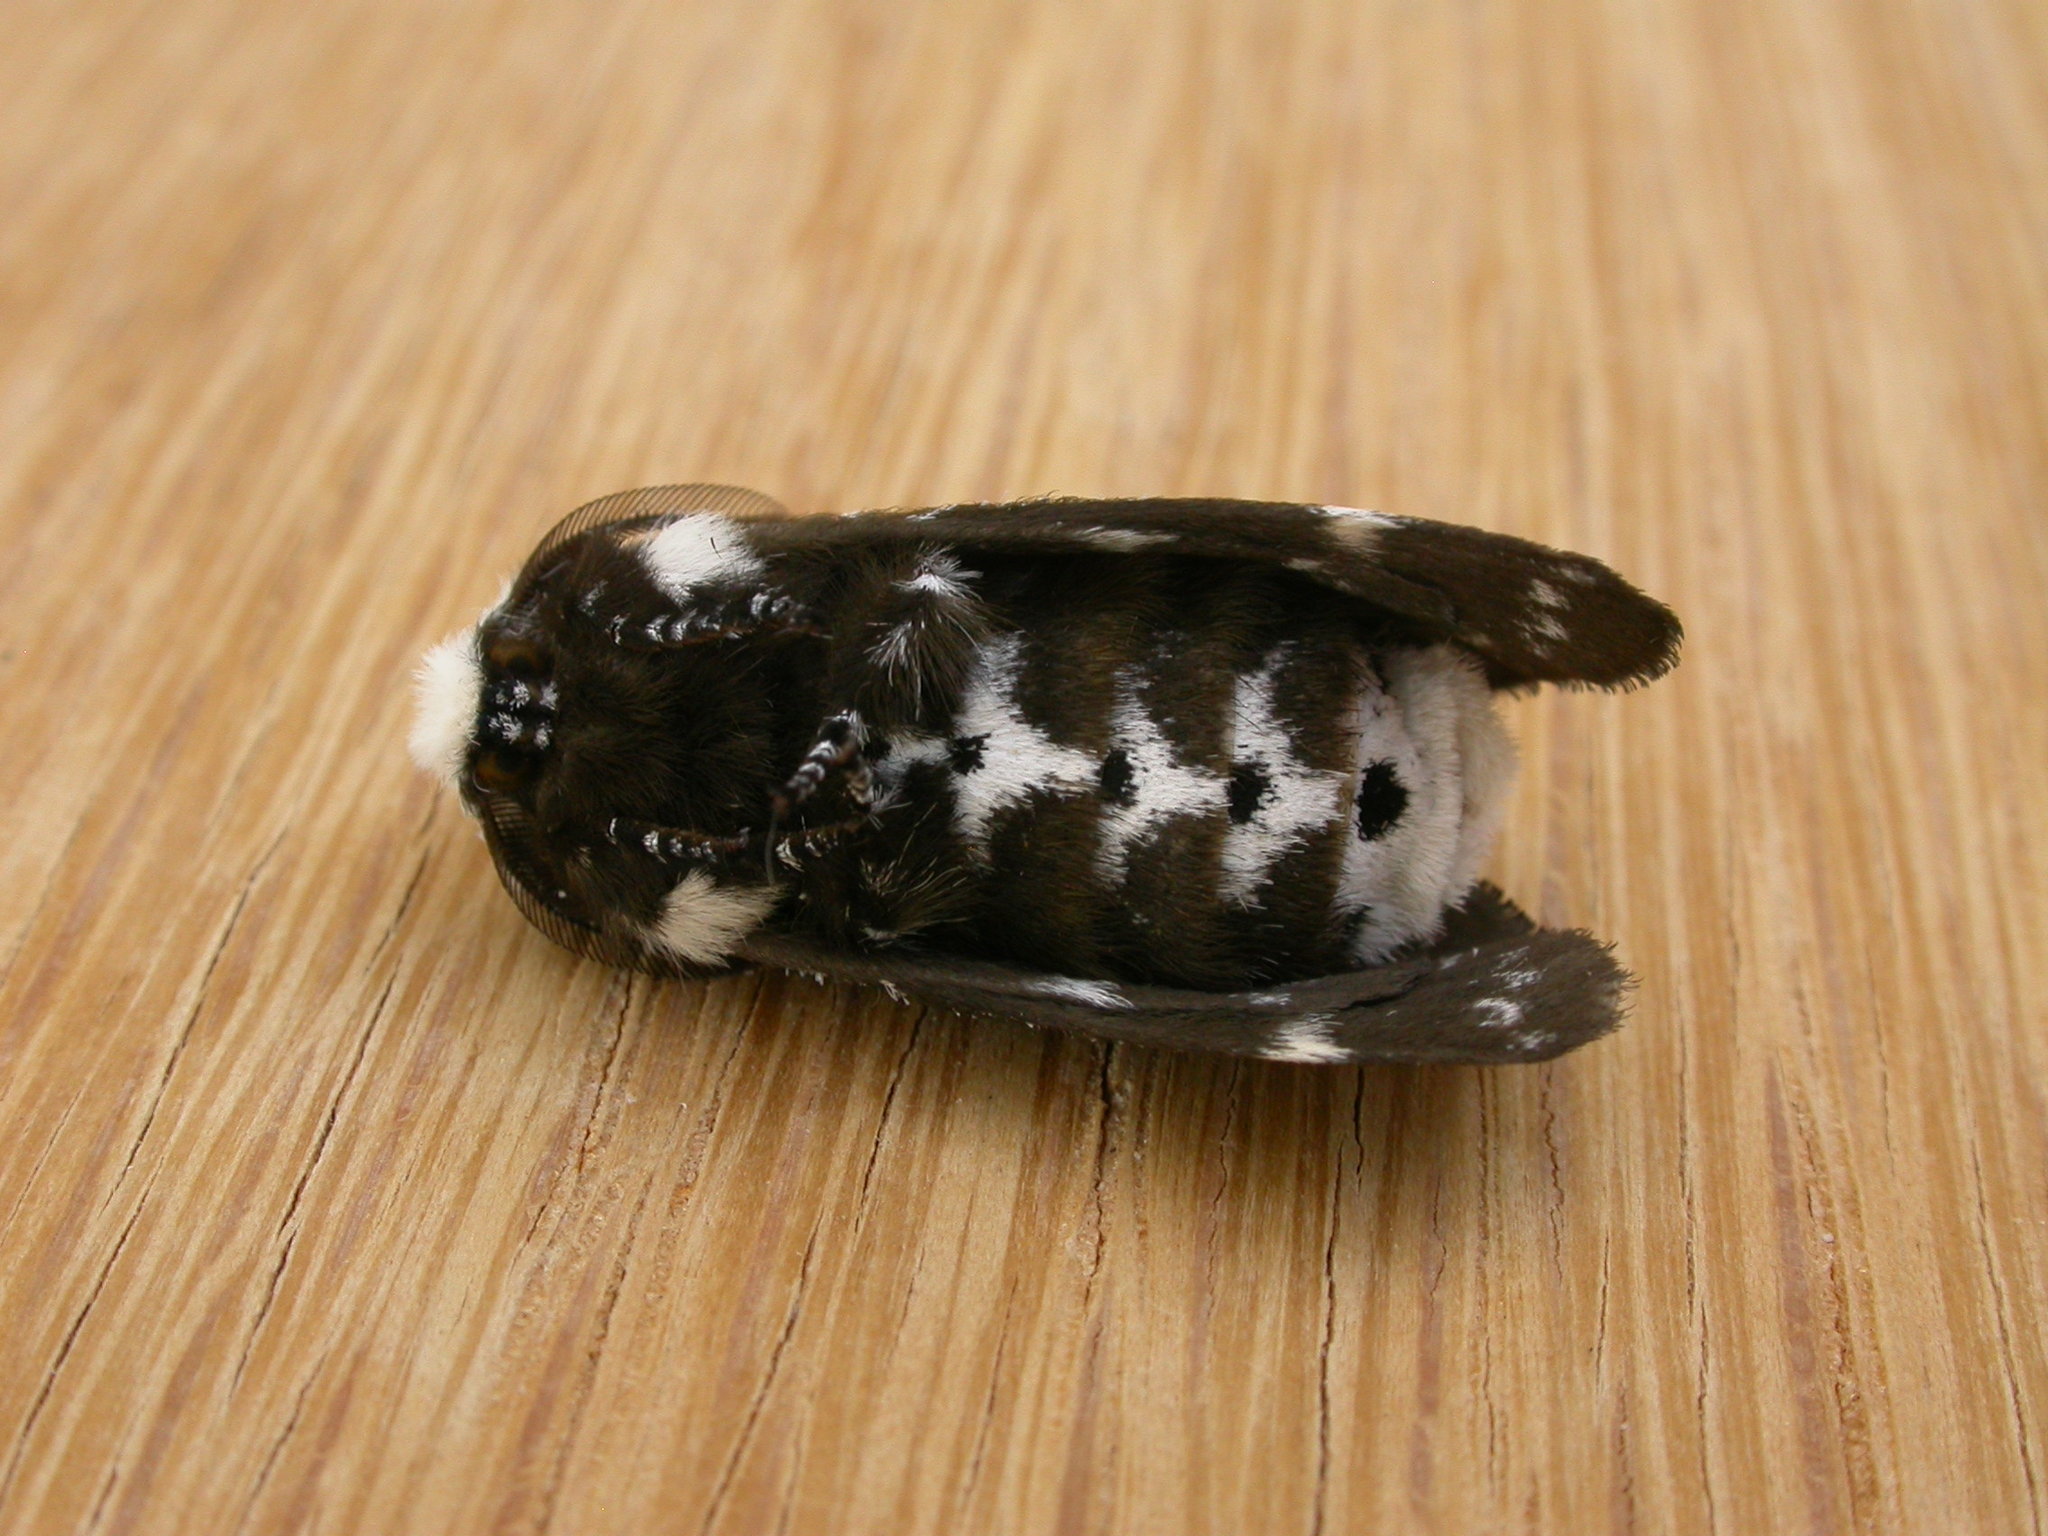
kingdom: Animalia
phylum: Arthropoda
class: Insecta
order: Lepidoptera
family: Lasiocampidae
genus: Genduara
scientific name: Genduara punctigera
